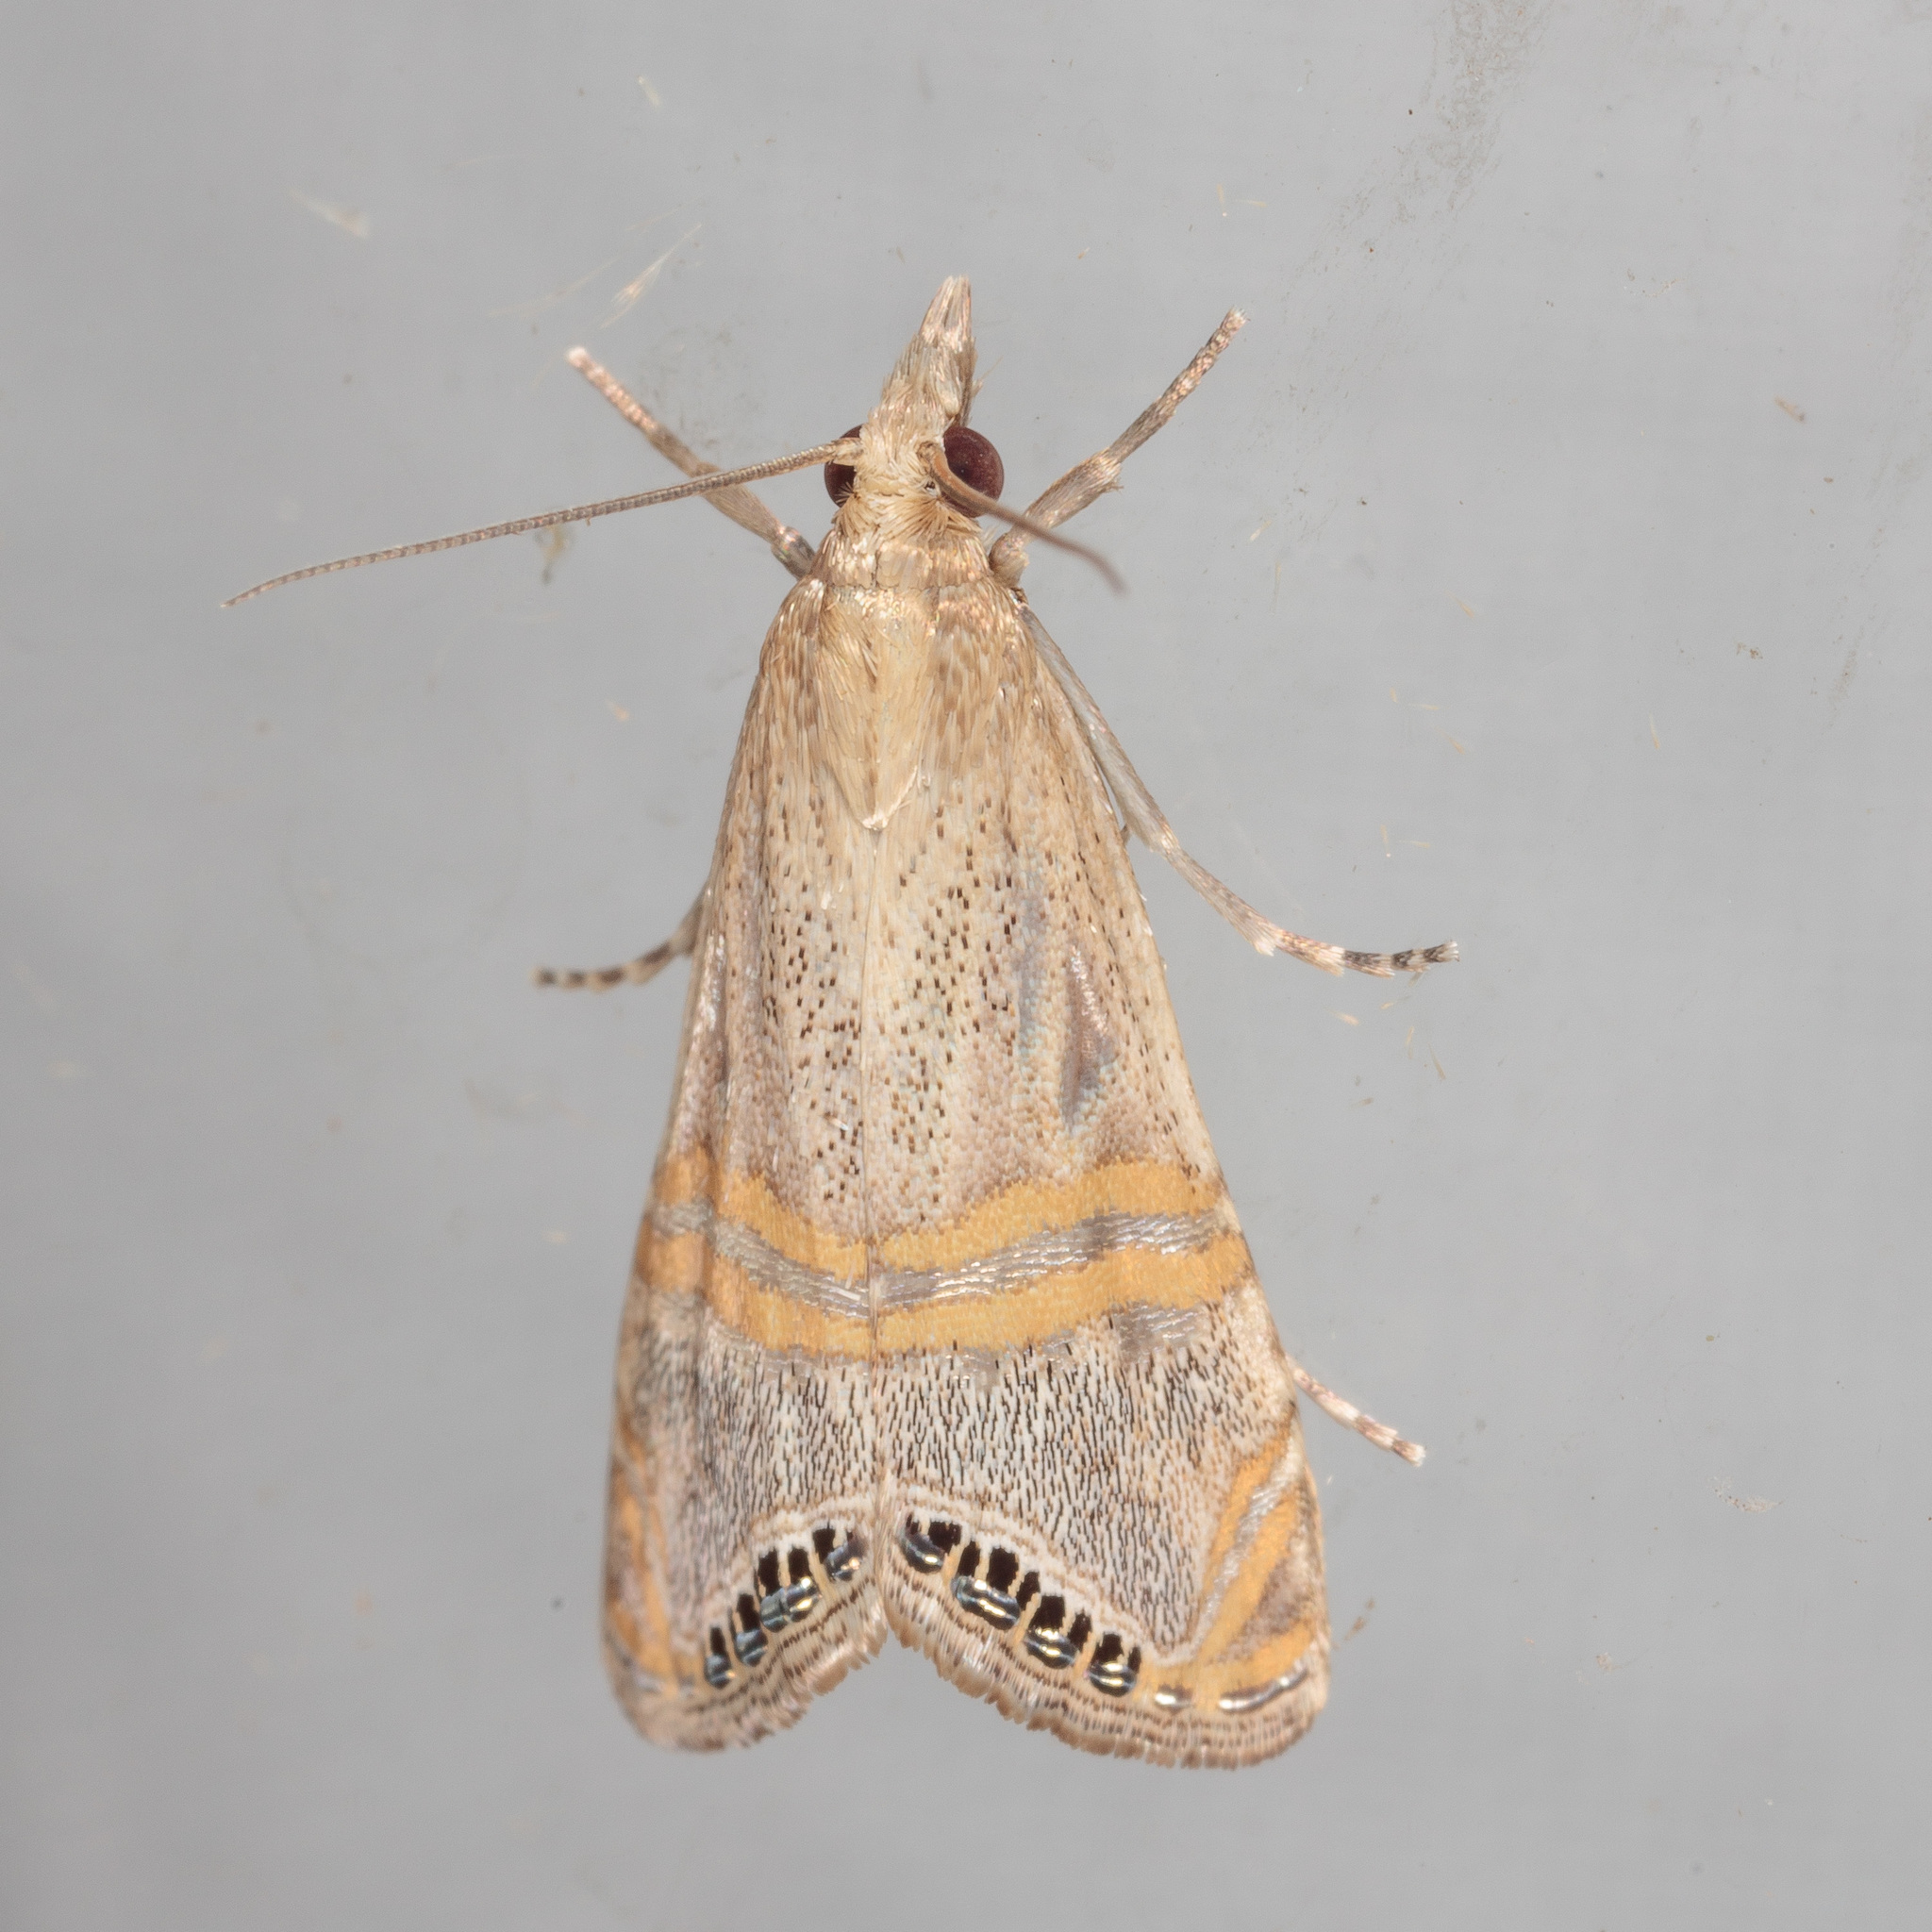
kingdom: Animalia
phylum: Arthropoda
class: Insecta
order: Lepidoptera
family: Crambidae
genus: Euchromius
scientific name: Euchromius ocellea
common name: Necklace veneer moth
